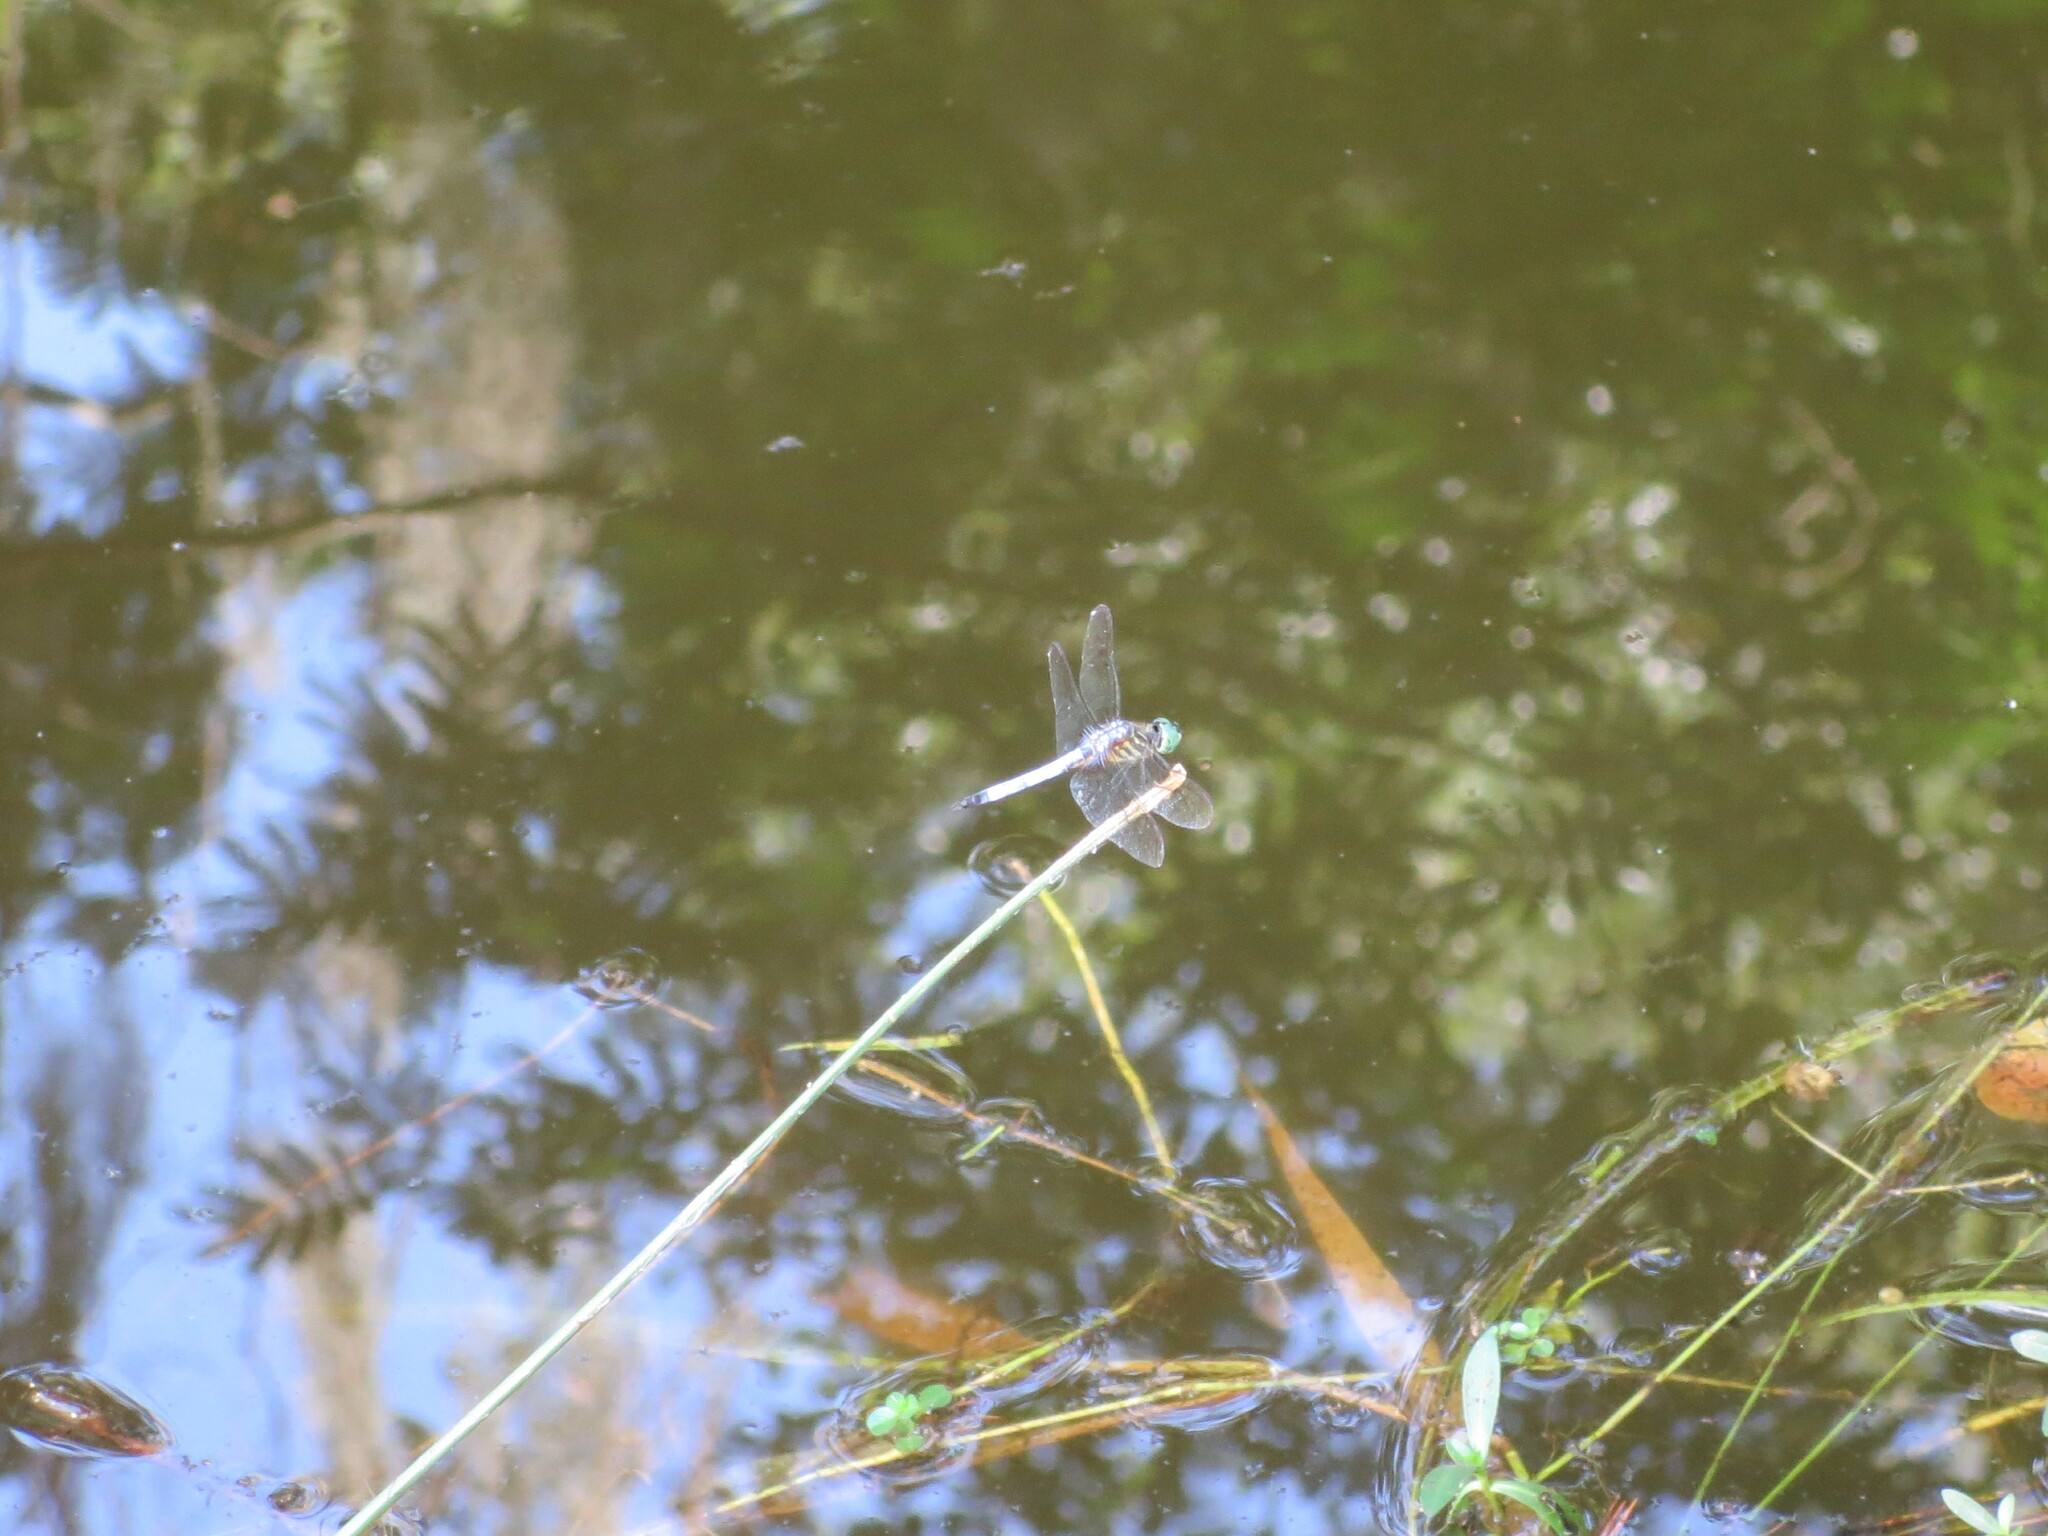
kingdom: Animalia
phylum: Arthropoda
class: Insecta
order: Odonata
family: Libellulidae
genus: Pachydiplax
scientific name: Pachydiplax longipennis
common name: Blue dasher
